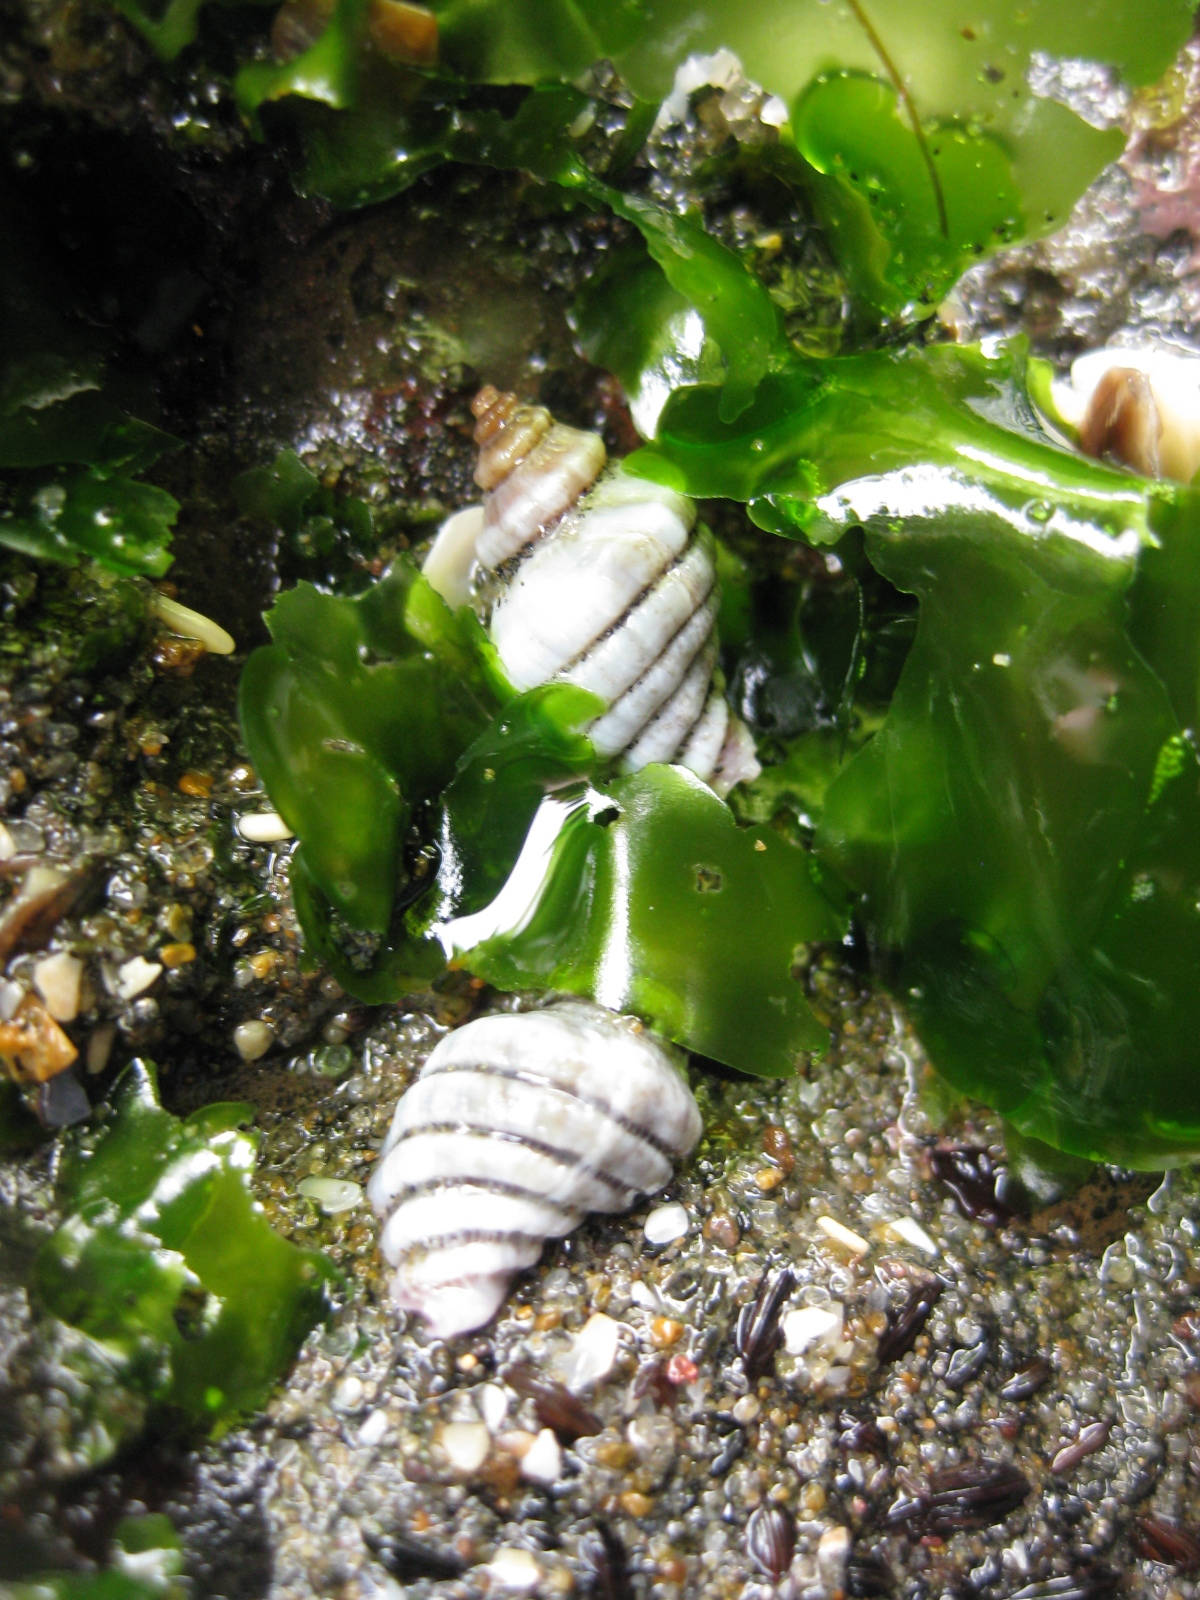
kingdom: Animalia
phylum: Mollusca
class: Gastropoda
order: Neogastropoda
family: Muricidae
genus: Paratrophon
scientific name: Paratrophon cheesemani
